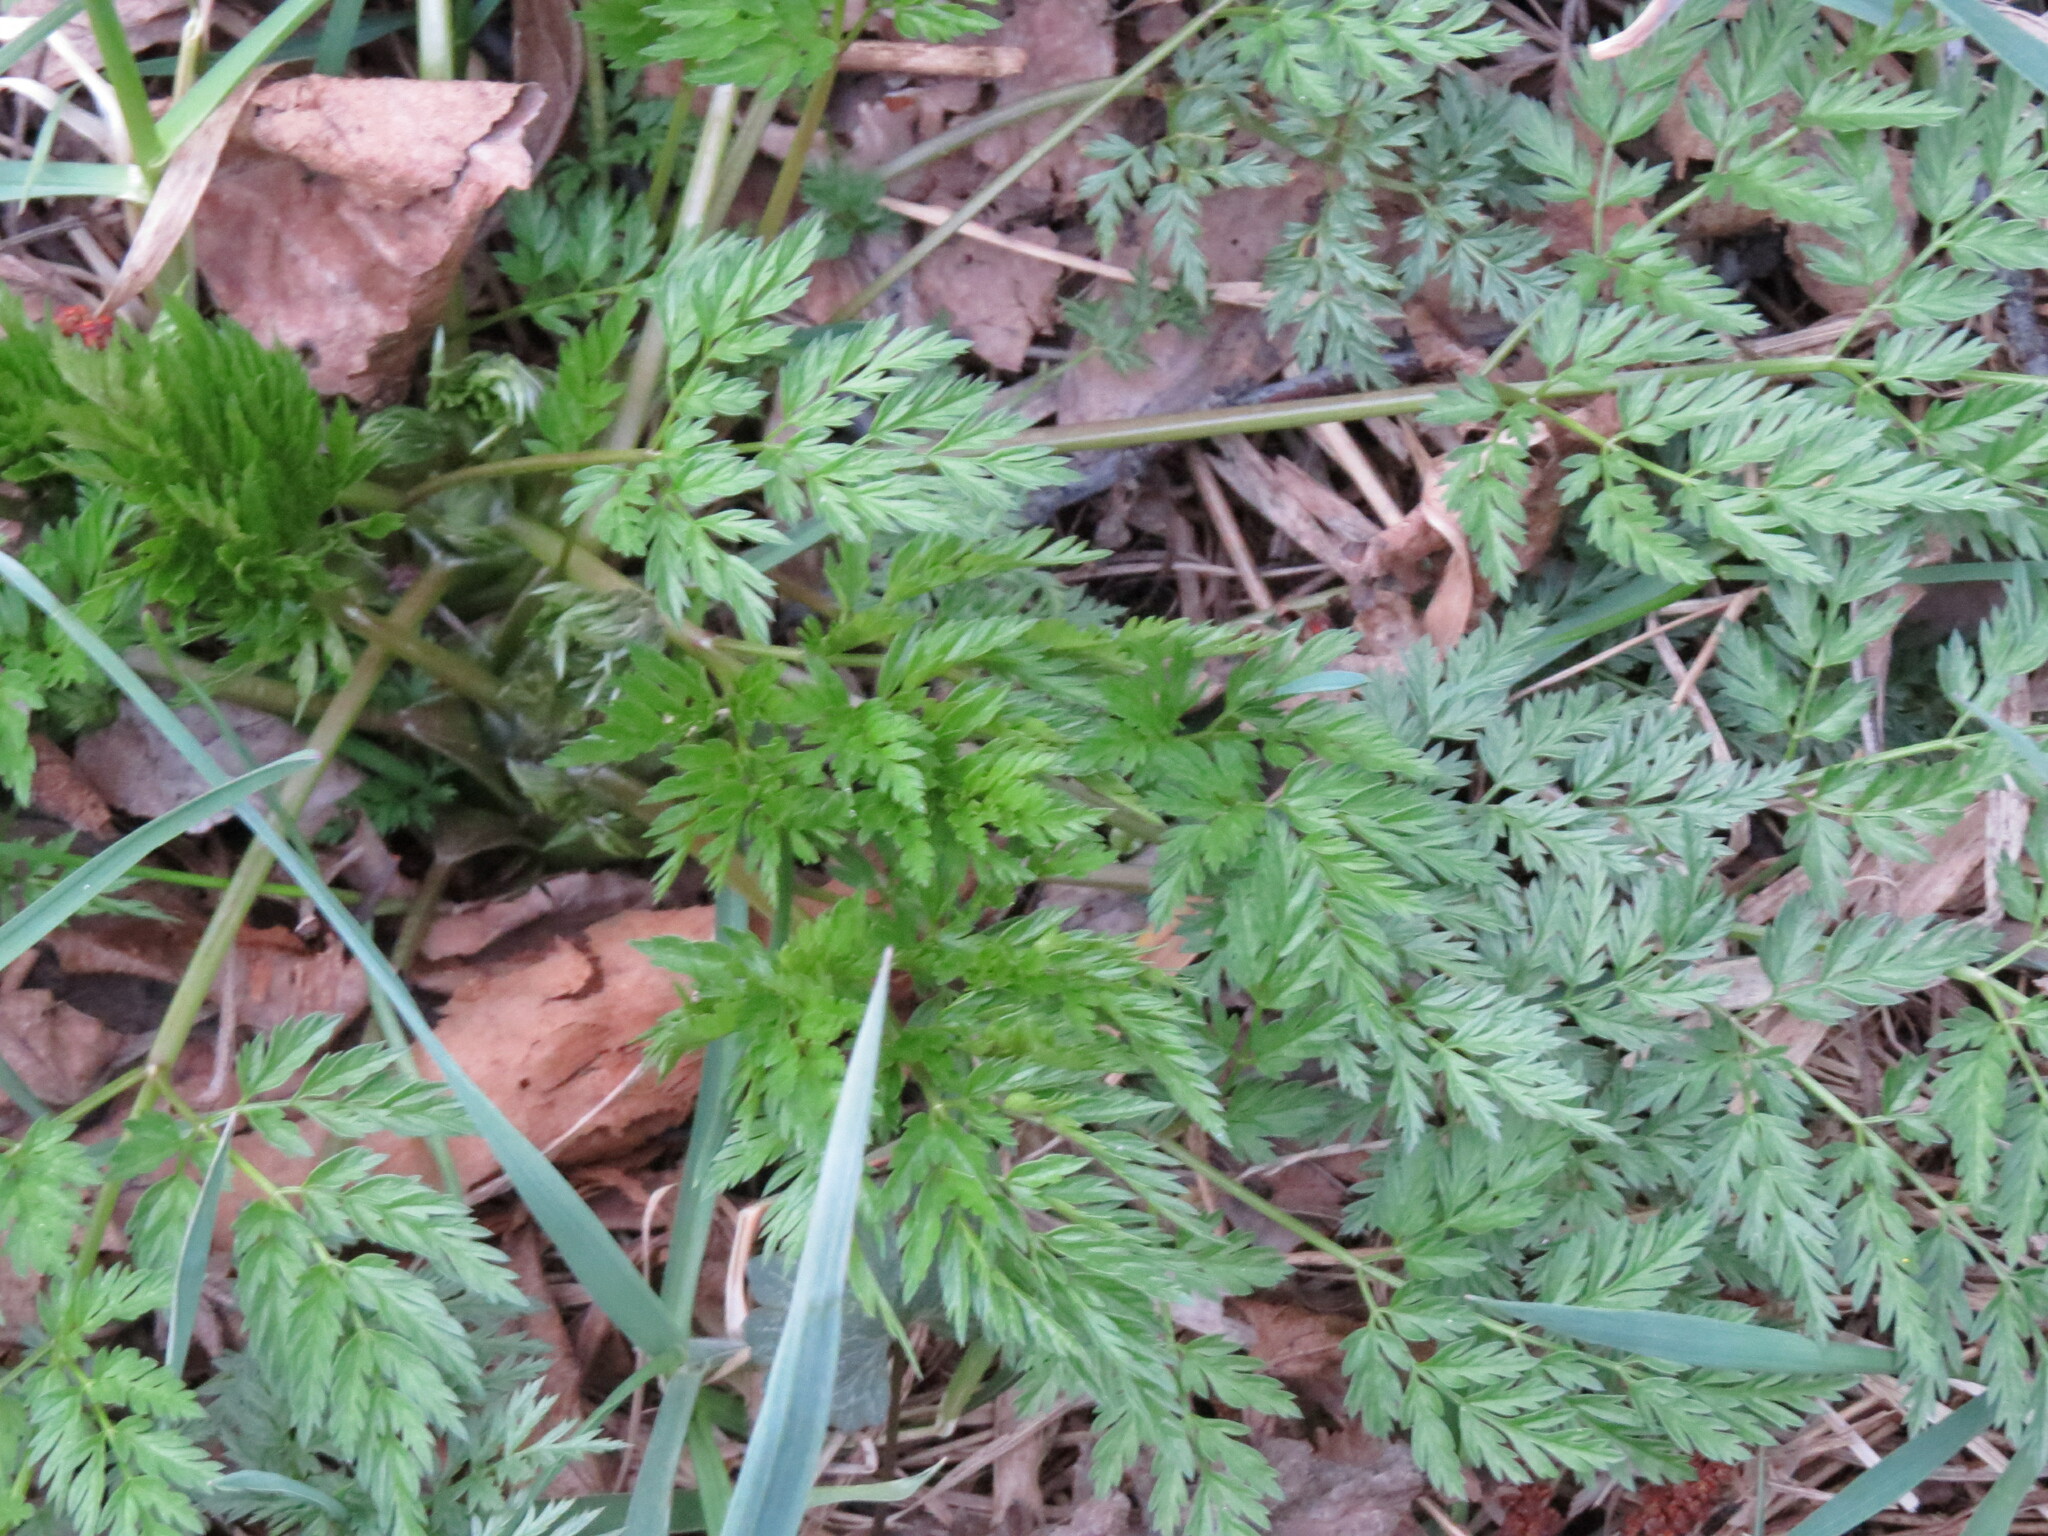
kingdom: Plantae
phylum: Tracheophyta
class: Magnoliopsida
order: Apiales
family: Apiaceae
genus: Anthriscus
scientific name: Anthriscus sylvestris
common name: Cow parsley
